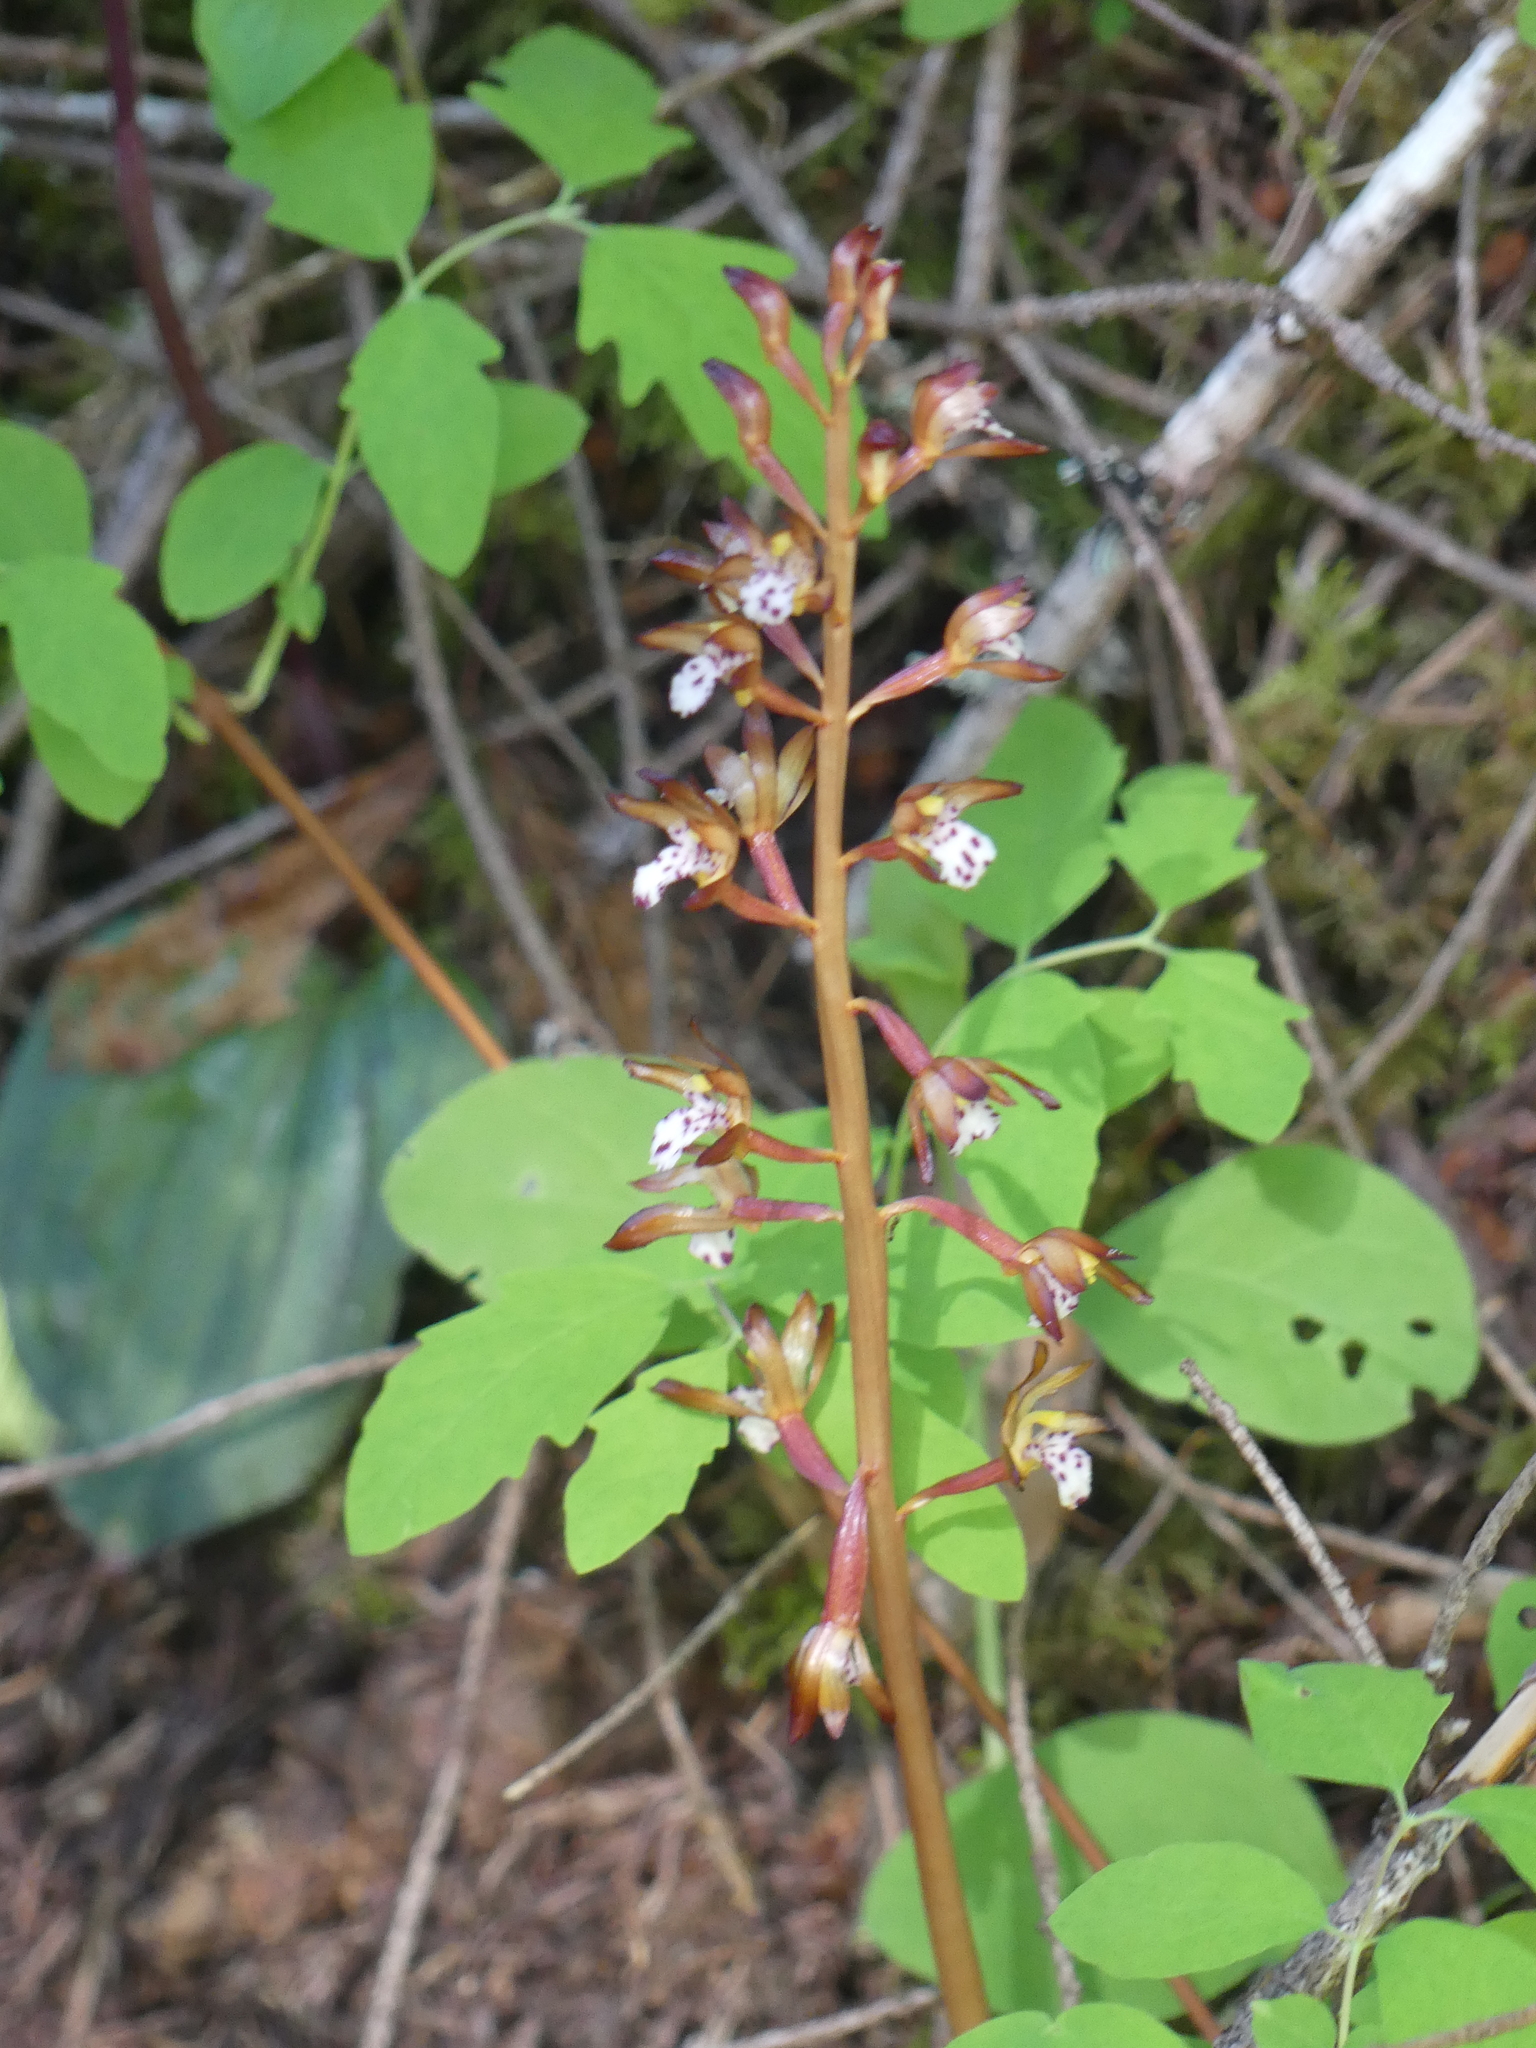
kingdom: Plantae
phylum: Tracheophyta
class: Liliopsida
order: Asparagales
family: Orchidaceae
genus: Corallorhiza
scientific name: Corallorhiza maculata
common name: Spotted coralroot
